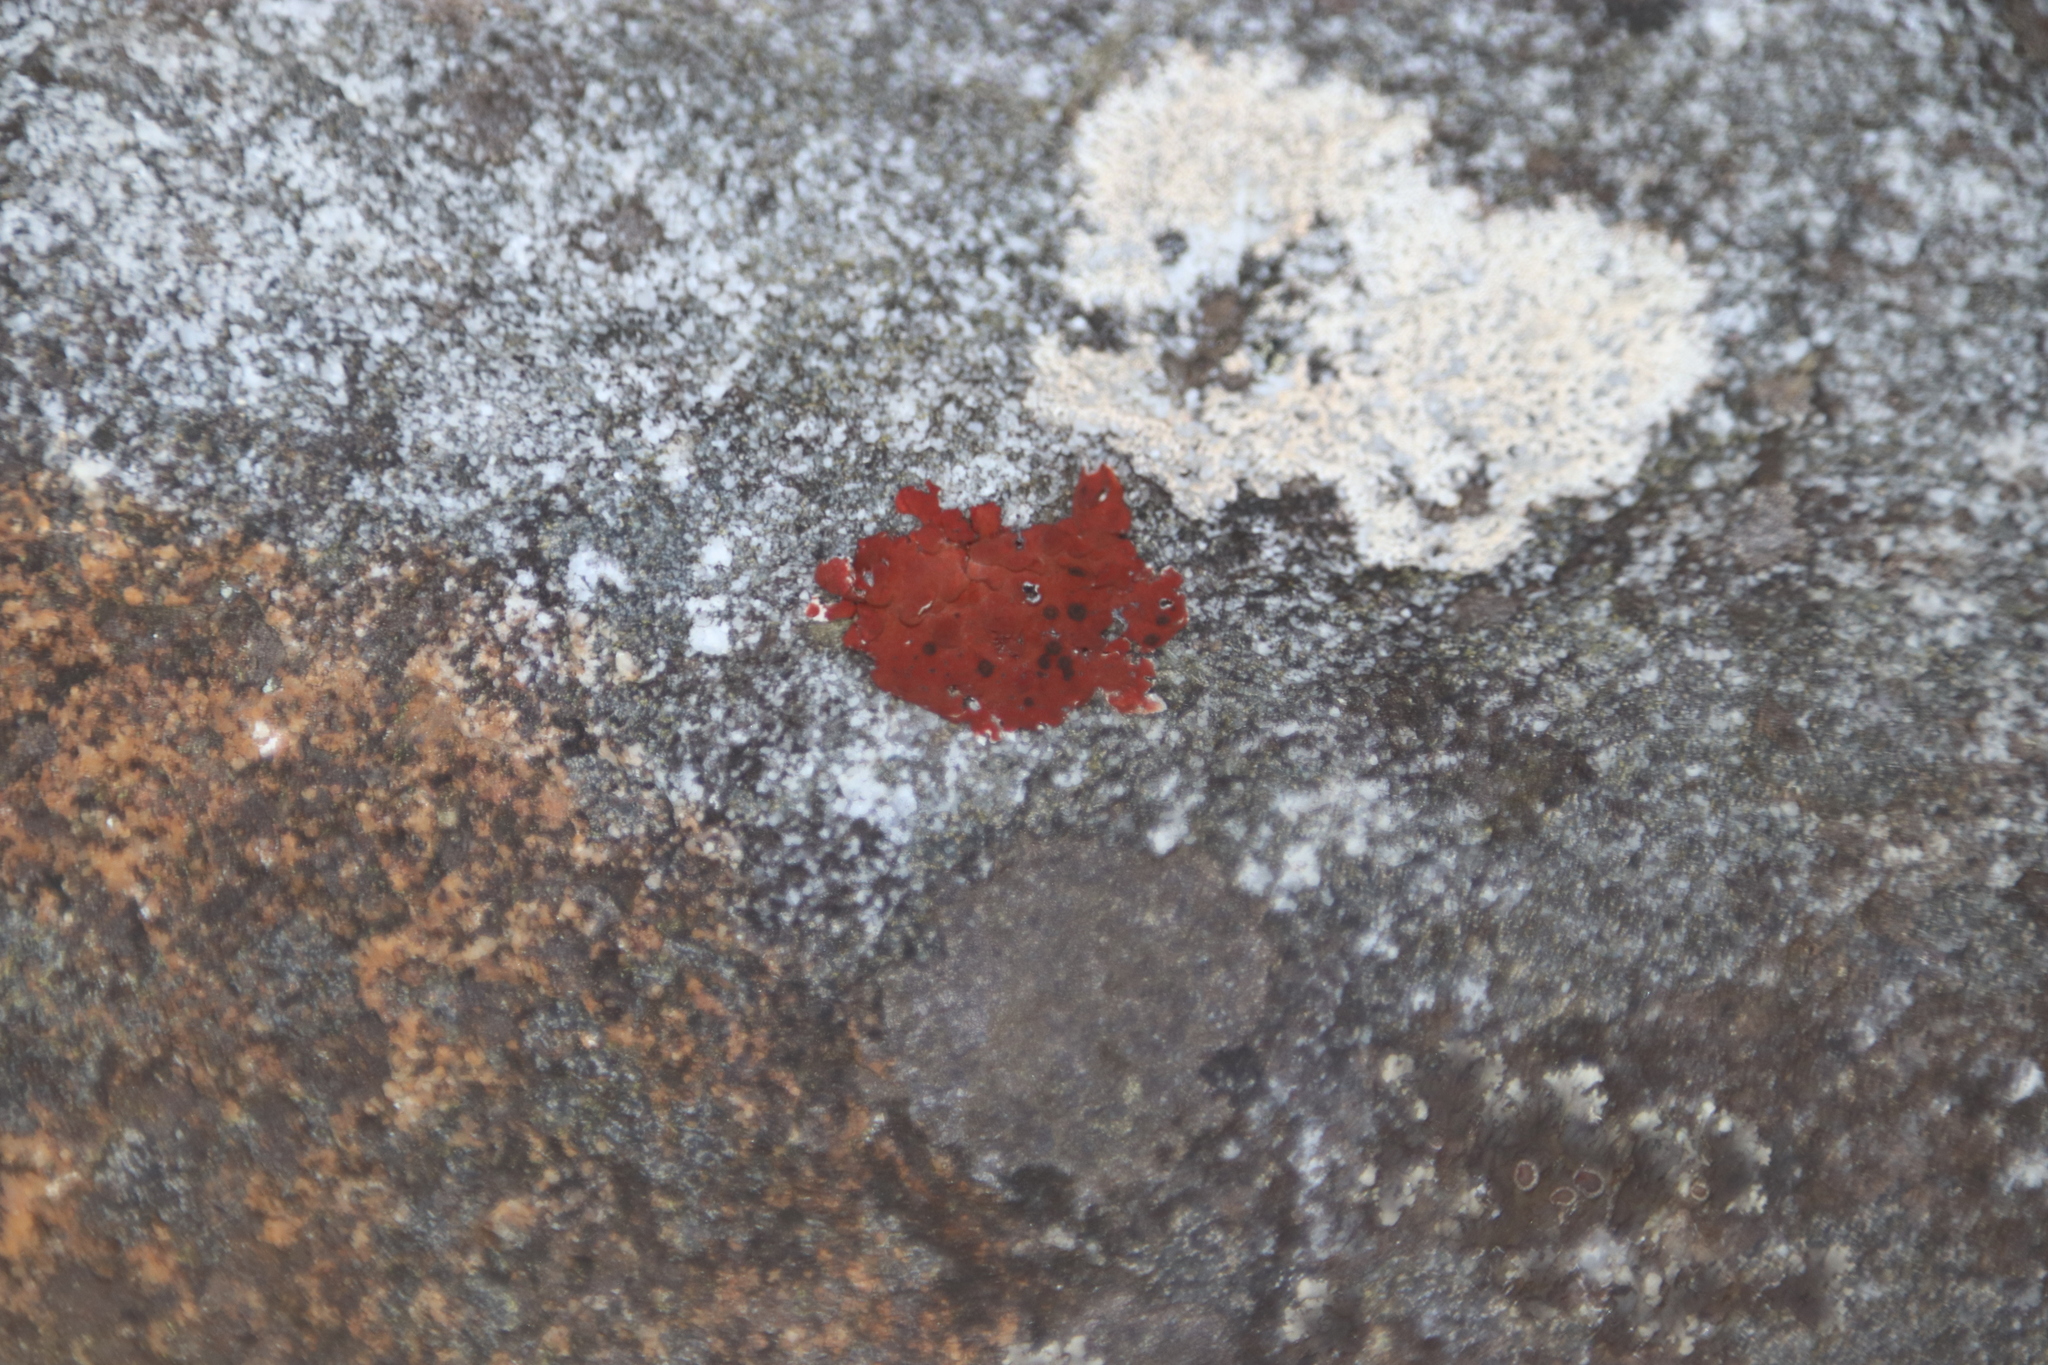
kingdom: Fungi
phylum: Ascomycota
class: Lecanoromycetes
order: Umbilicariales
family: Umbilicariaceae
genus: Lasallia
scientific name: Lasallia rubiginosa
